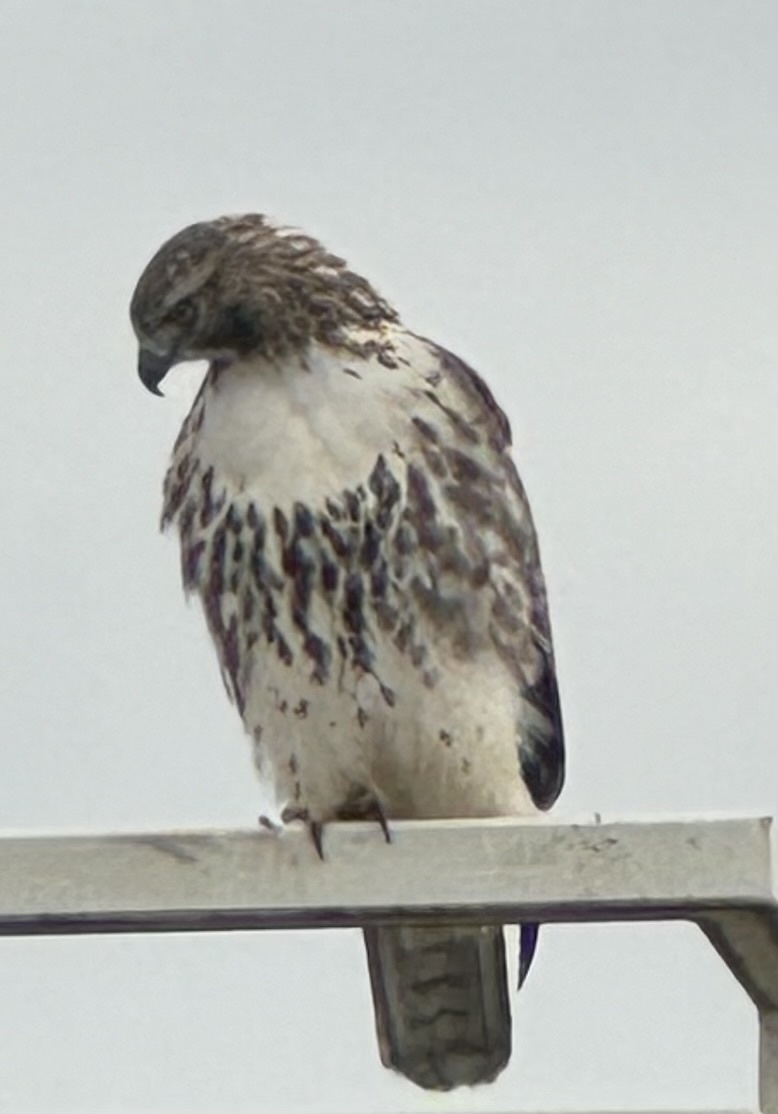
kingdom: Animalia
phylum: Chordata
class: Aves
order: Accipitriformes
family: Accipitridae
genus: Buteo
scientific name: Buteo jamaicensis
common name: Red-tailed hawk
